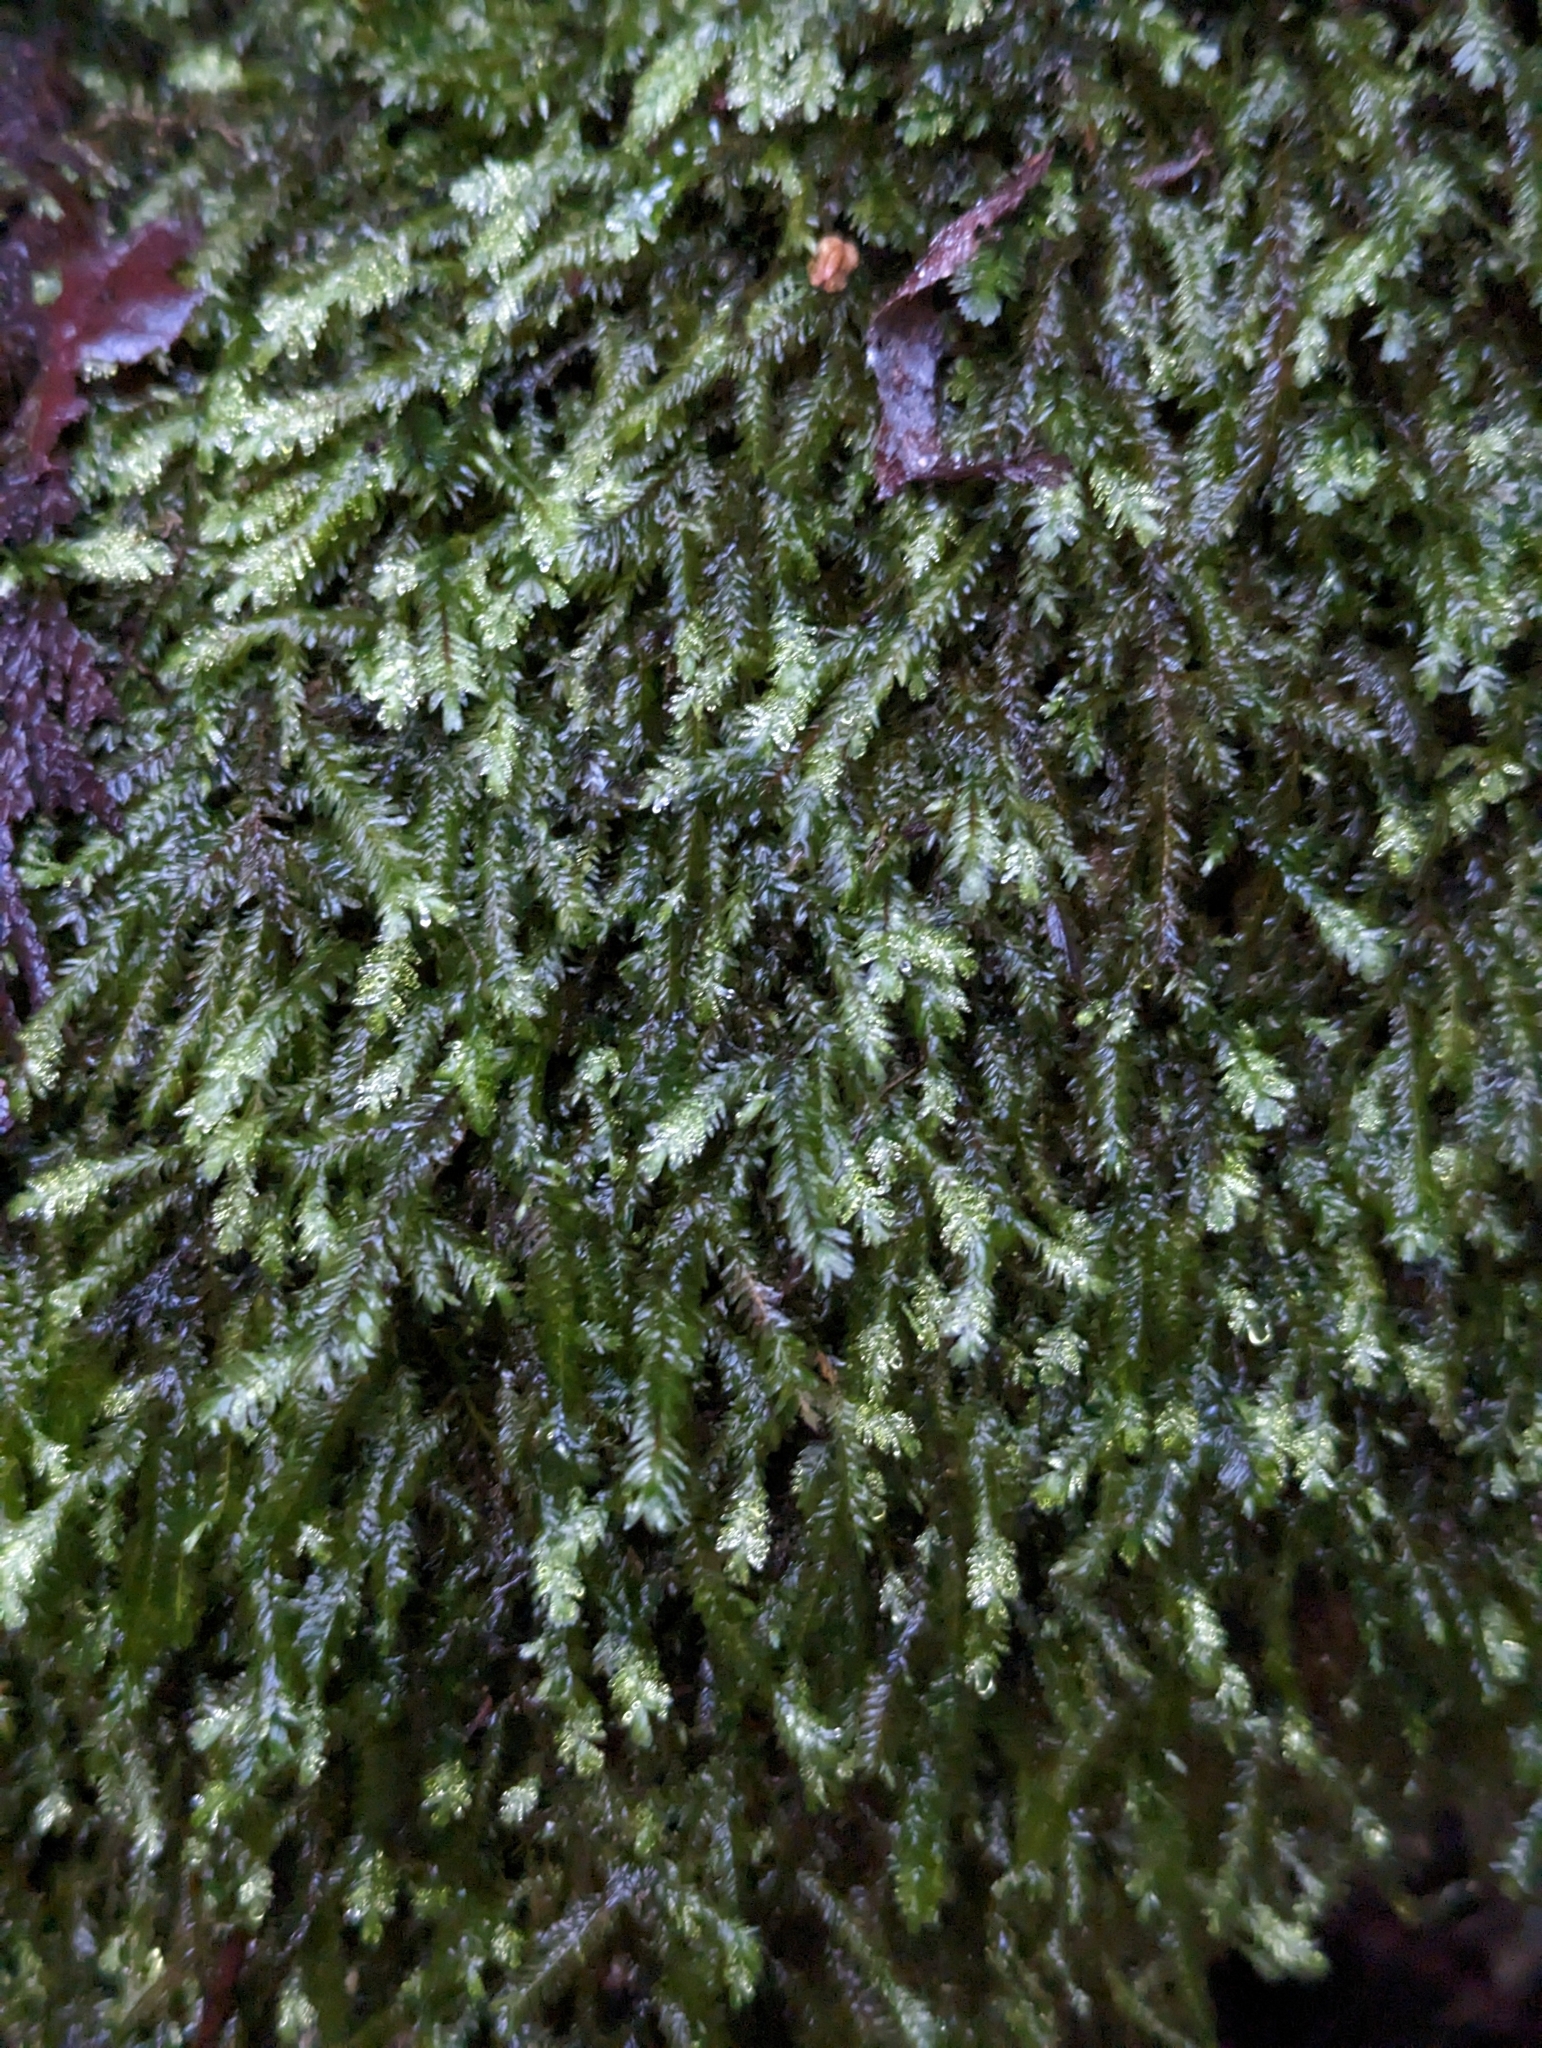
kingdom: Plantae
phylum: Bryophyta
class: Bryopsida
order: Hypnales
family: Neckeraceae
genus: Dannorrisia
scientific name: Dannorrisia bigelovii
